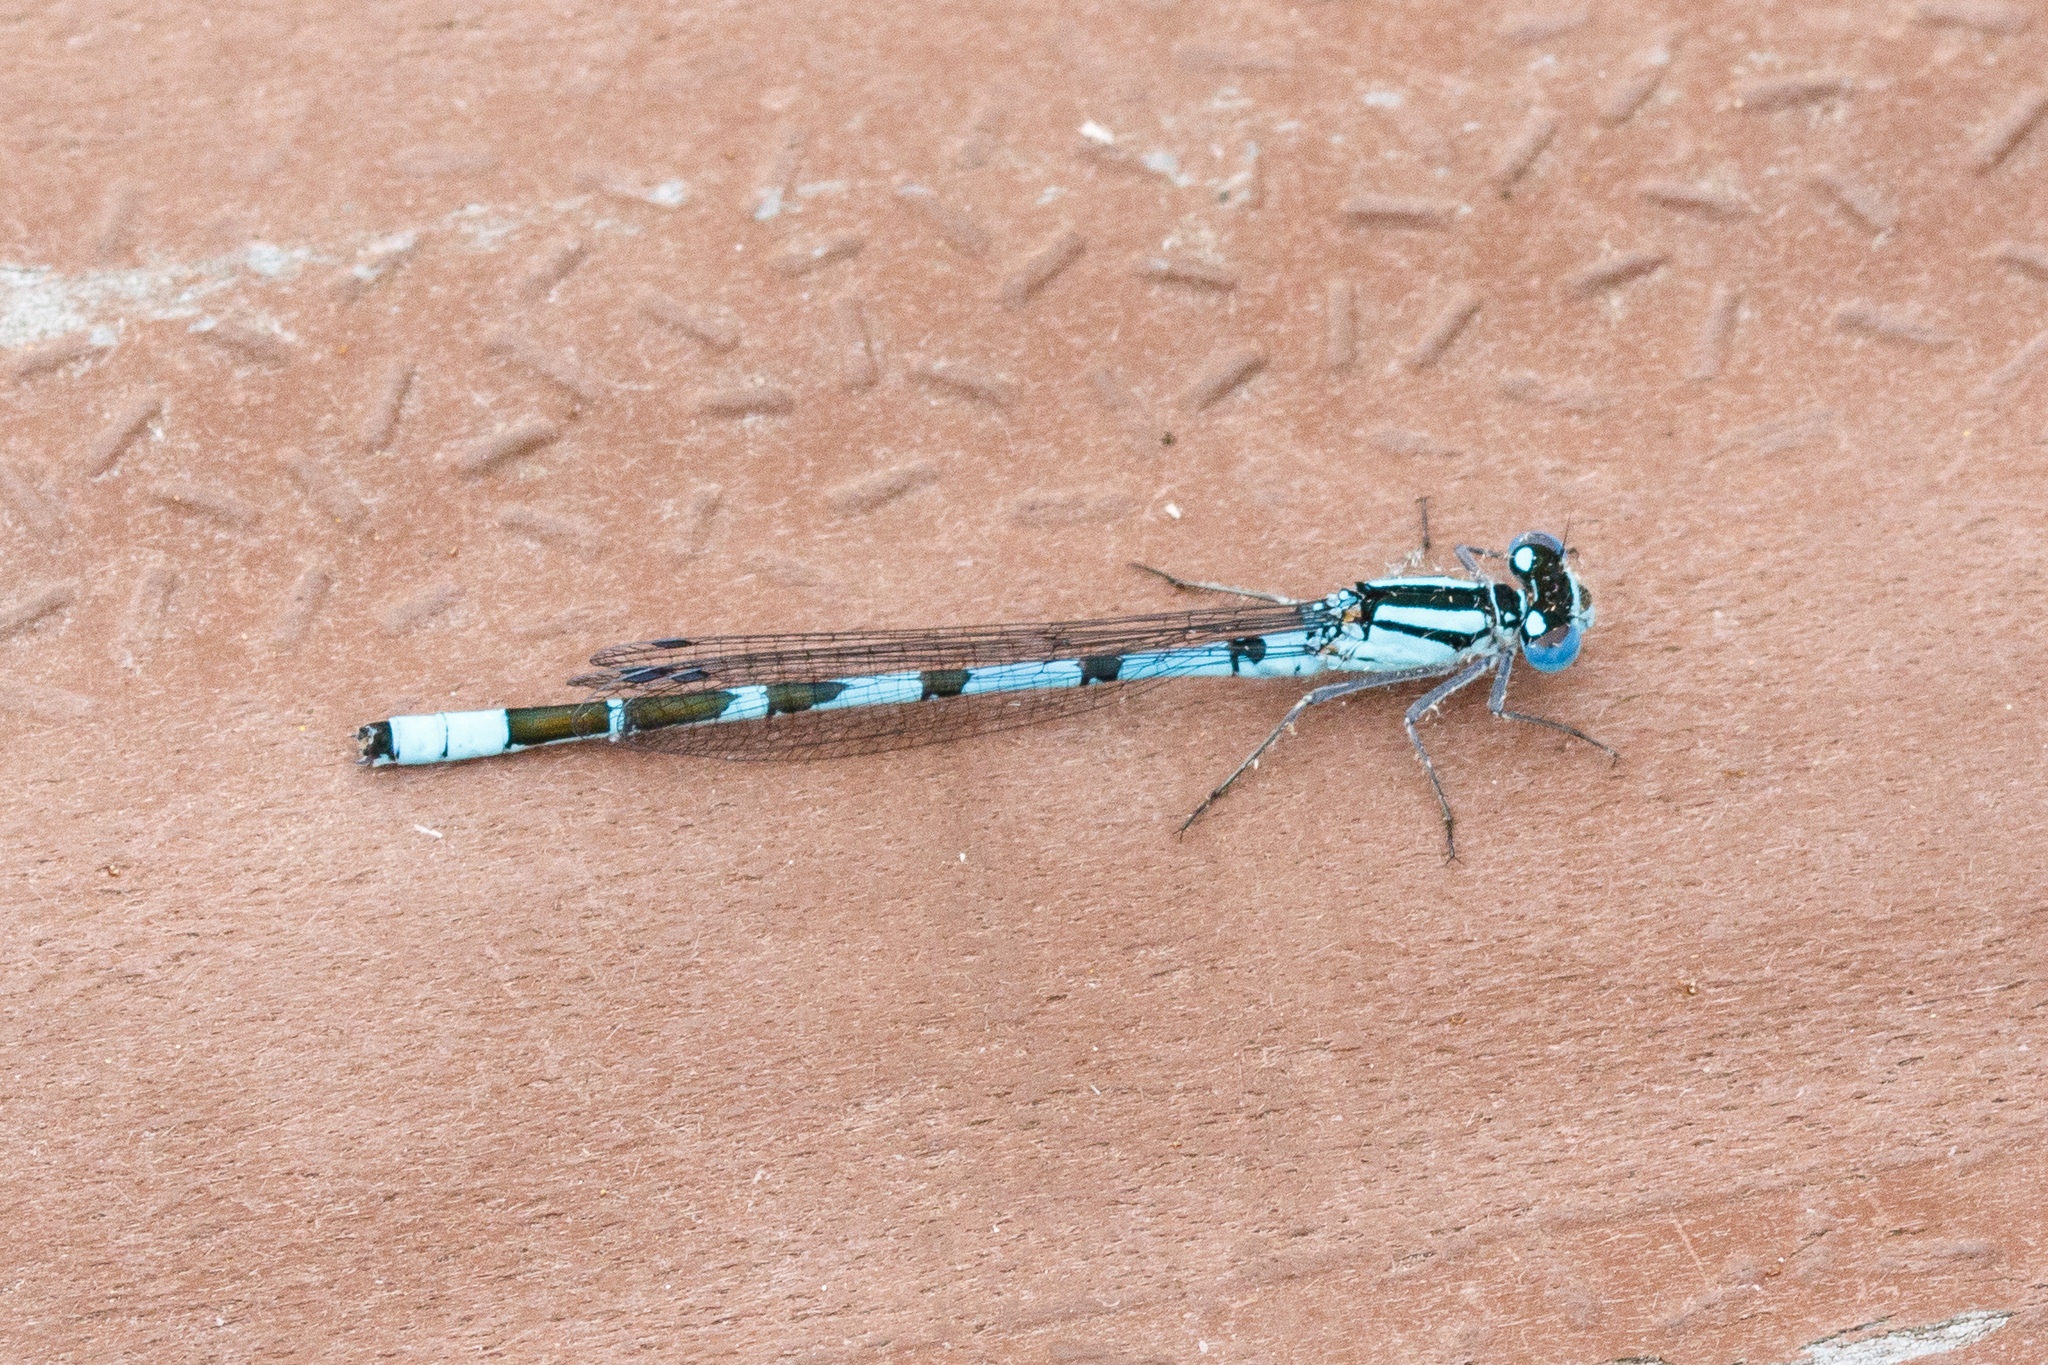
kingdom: Animalia
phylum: Arthropoda
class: Insecta
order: Odonata
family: Coenagrionidae
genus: Enallagma
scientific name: Enallagma cyathigerum
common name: Common blue damselfly
